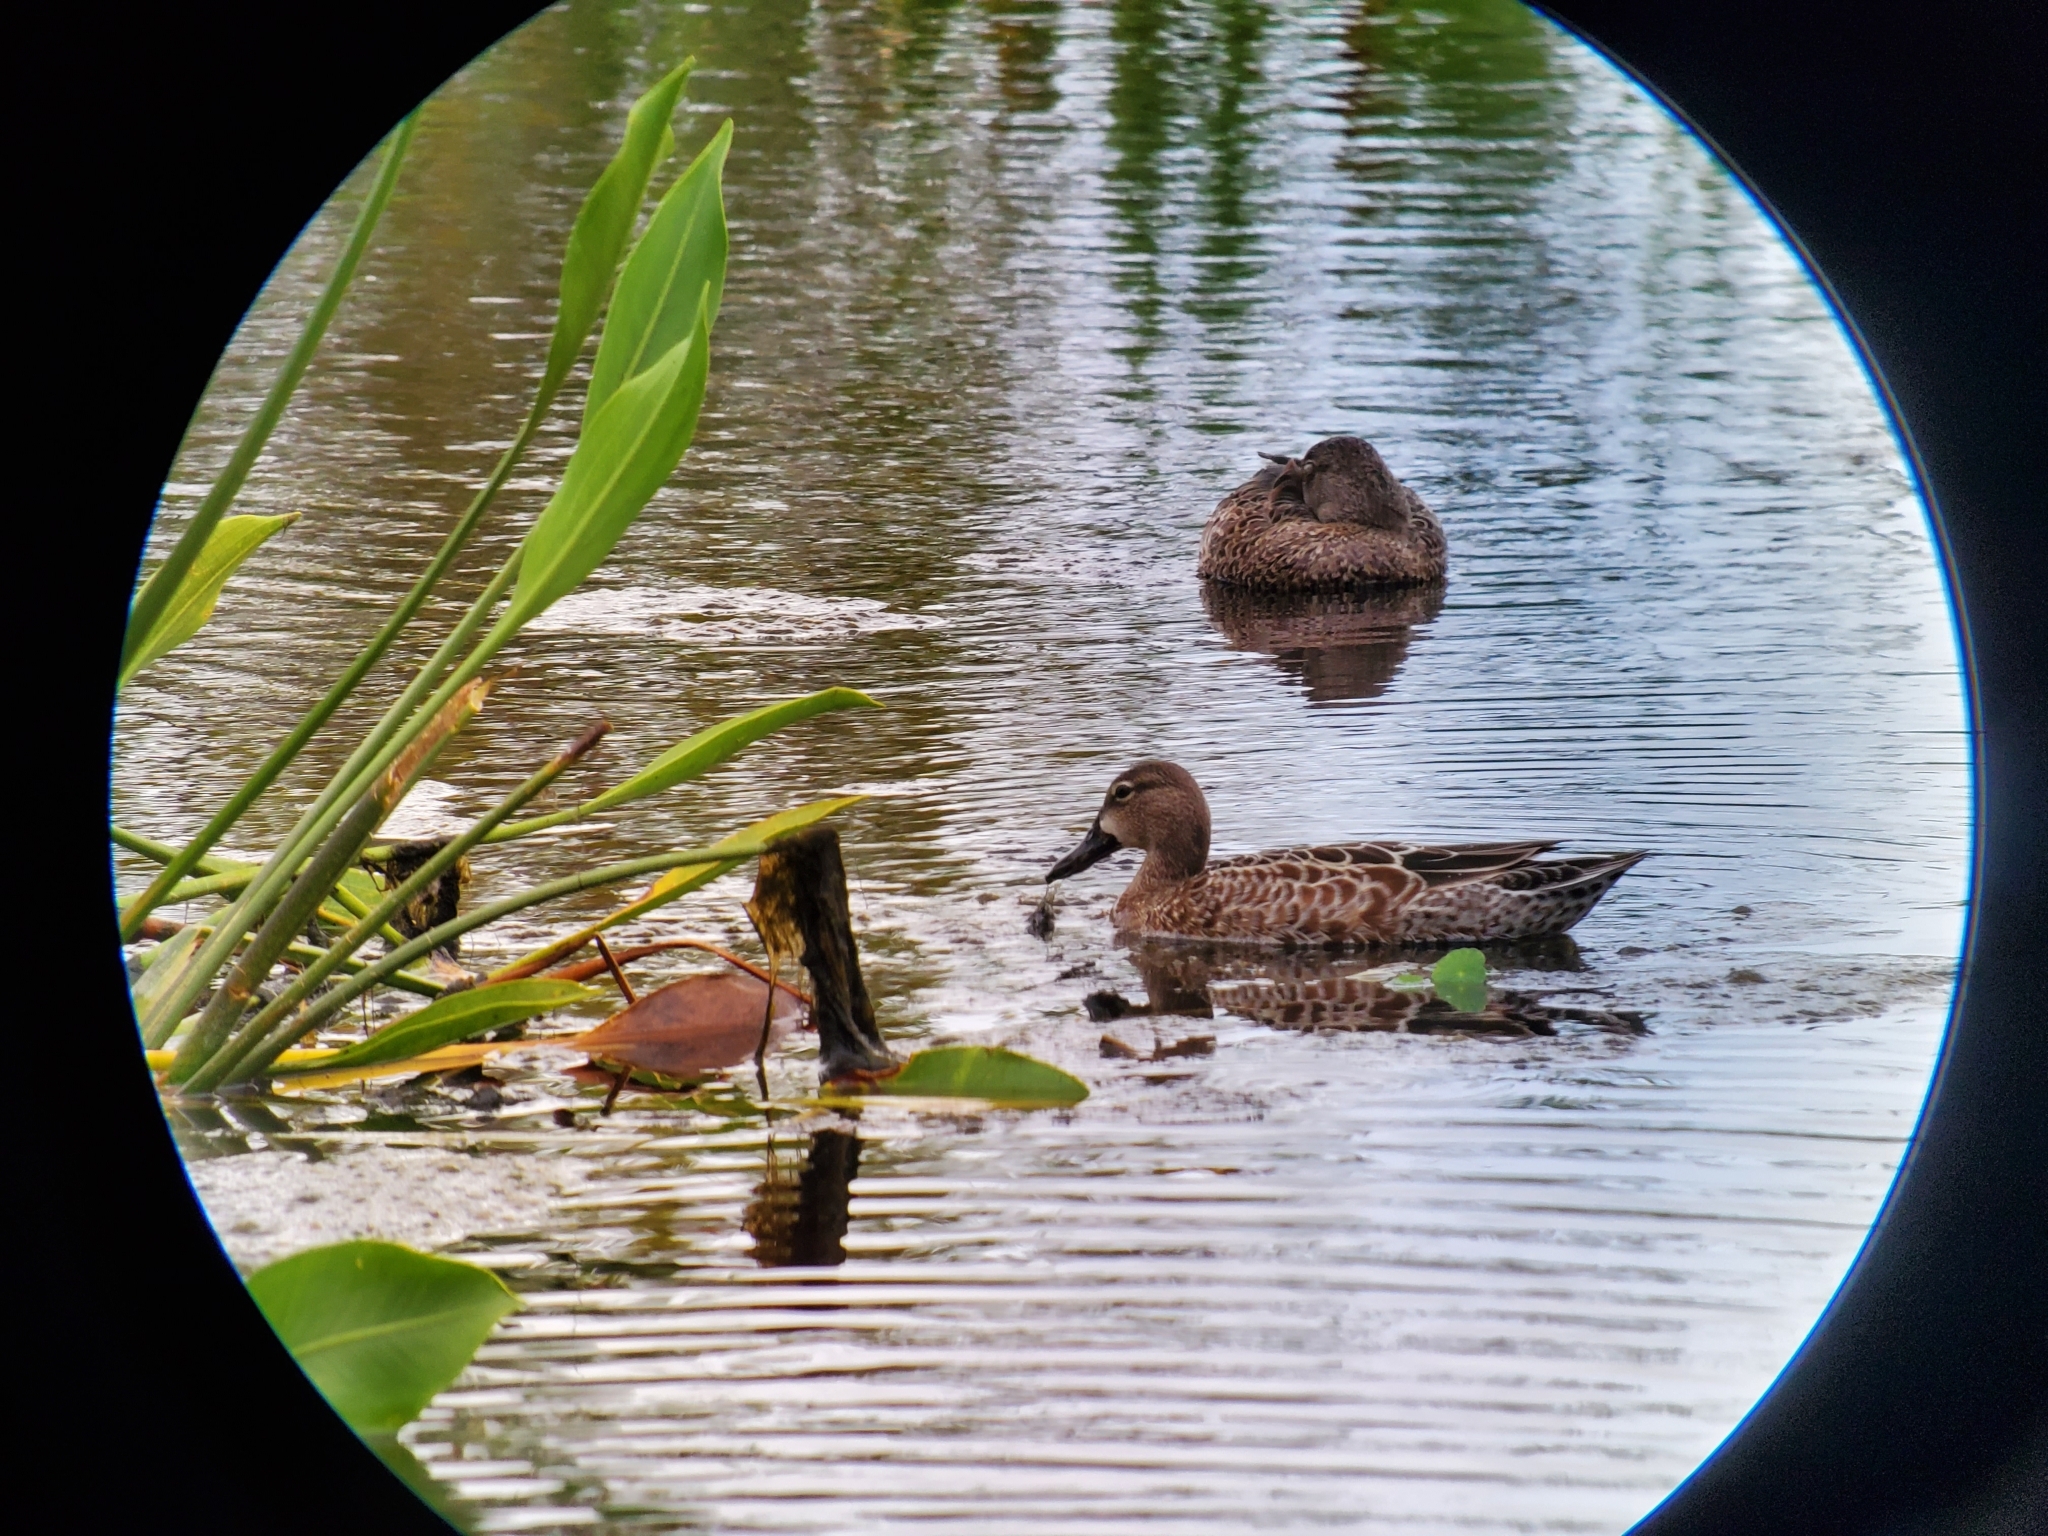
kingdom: Animalia
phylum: Chordata
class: Aves
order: Anseriformes
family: Anatidae
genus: Spatula
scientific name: Spatula discors
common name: Blue-winged teal
